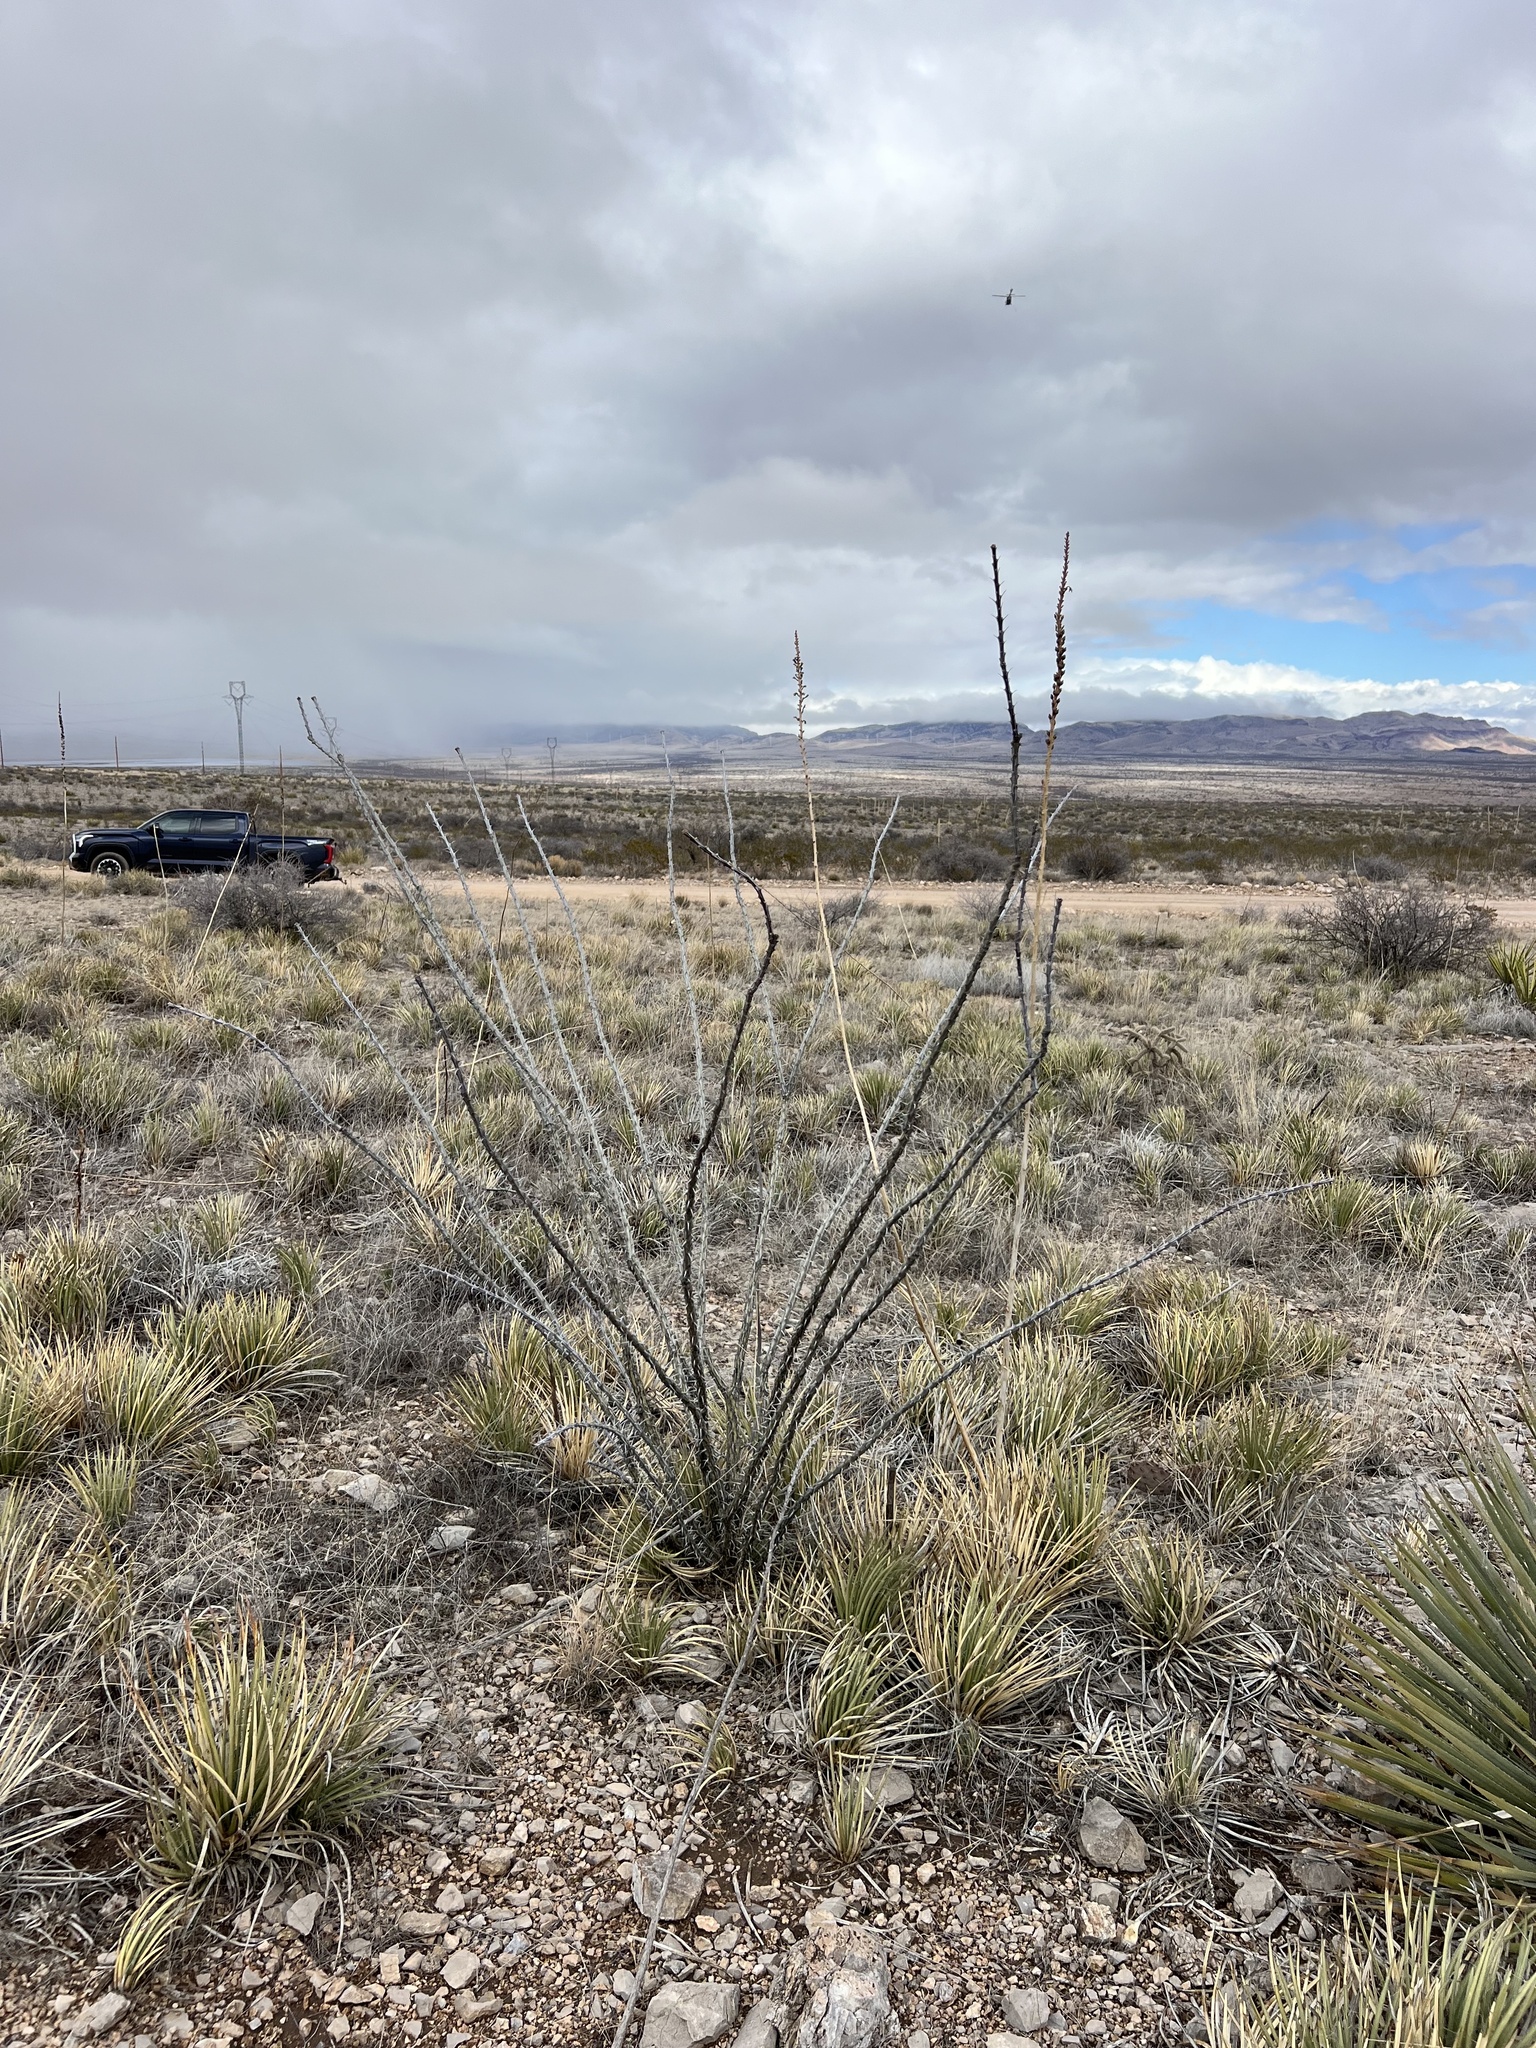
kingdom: Plantae
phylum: Tracheophyta
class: Magnoliopsida
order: Ericales
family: Fouquieriaceae
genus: Fouquieria
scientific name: Fouquieria splendens
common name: Vine-cactus
